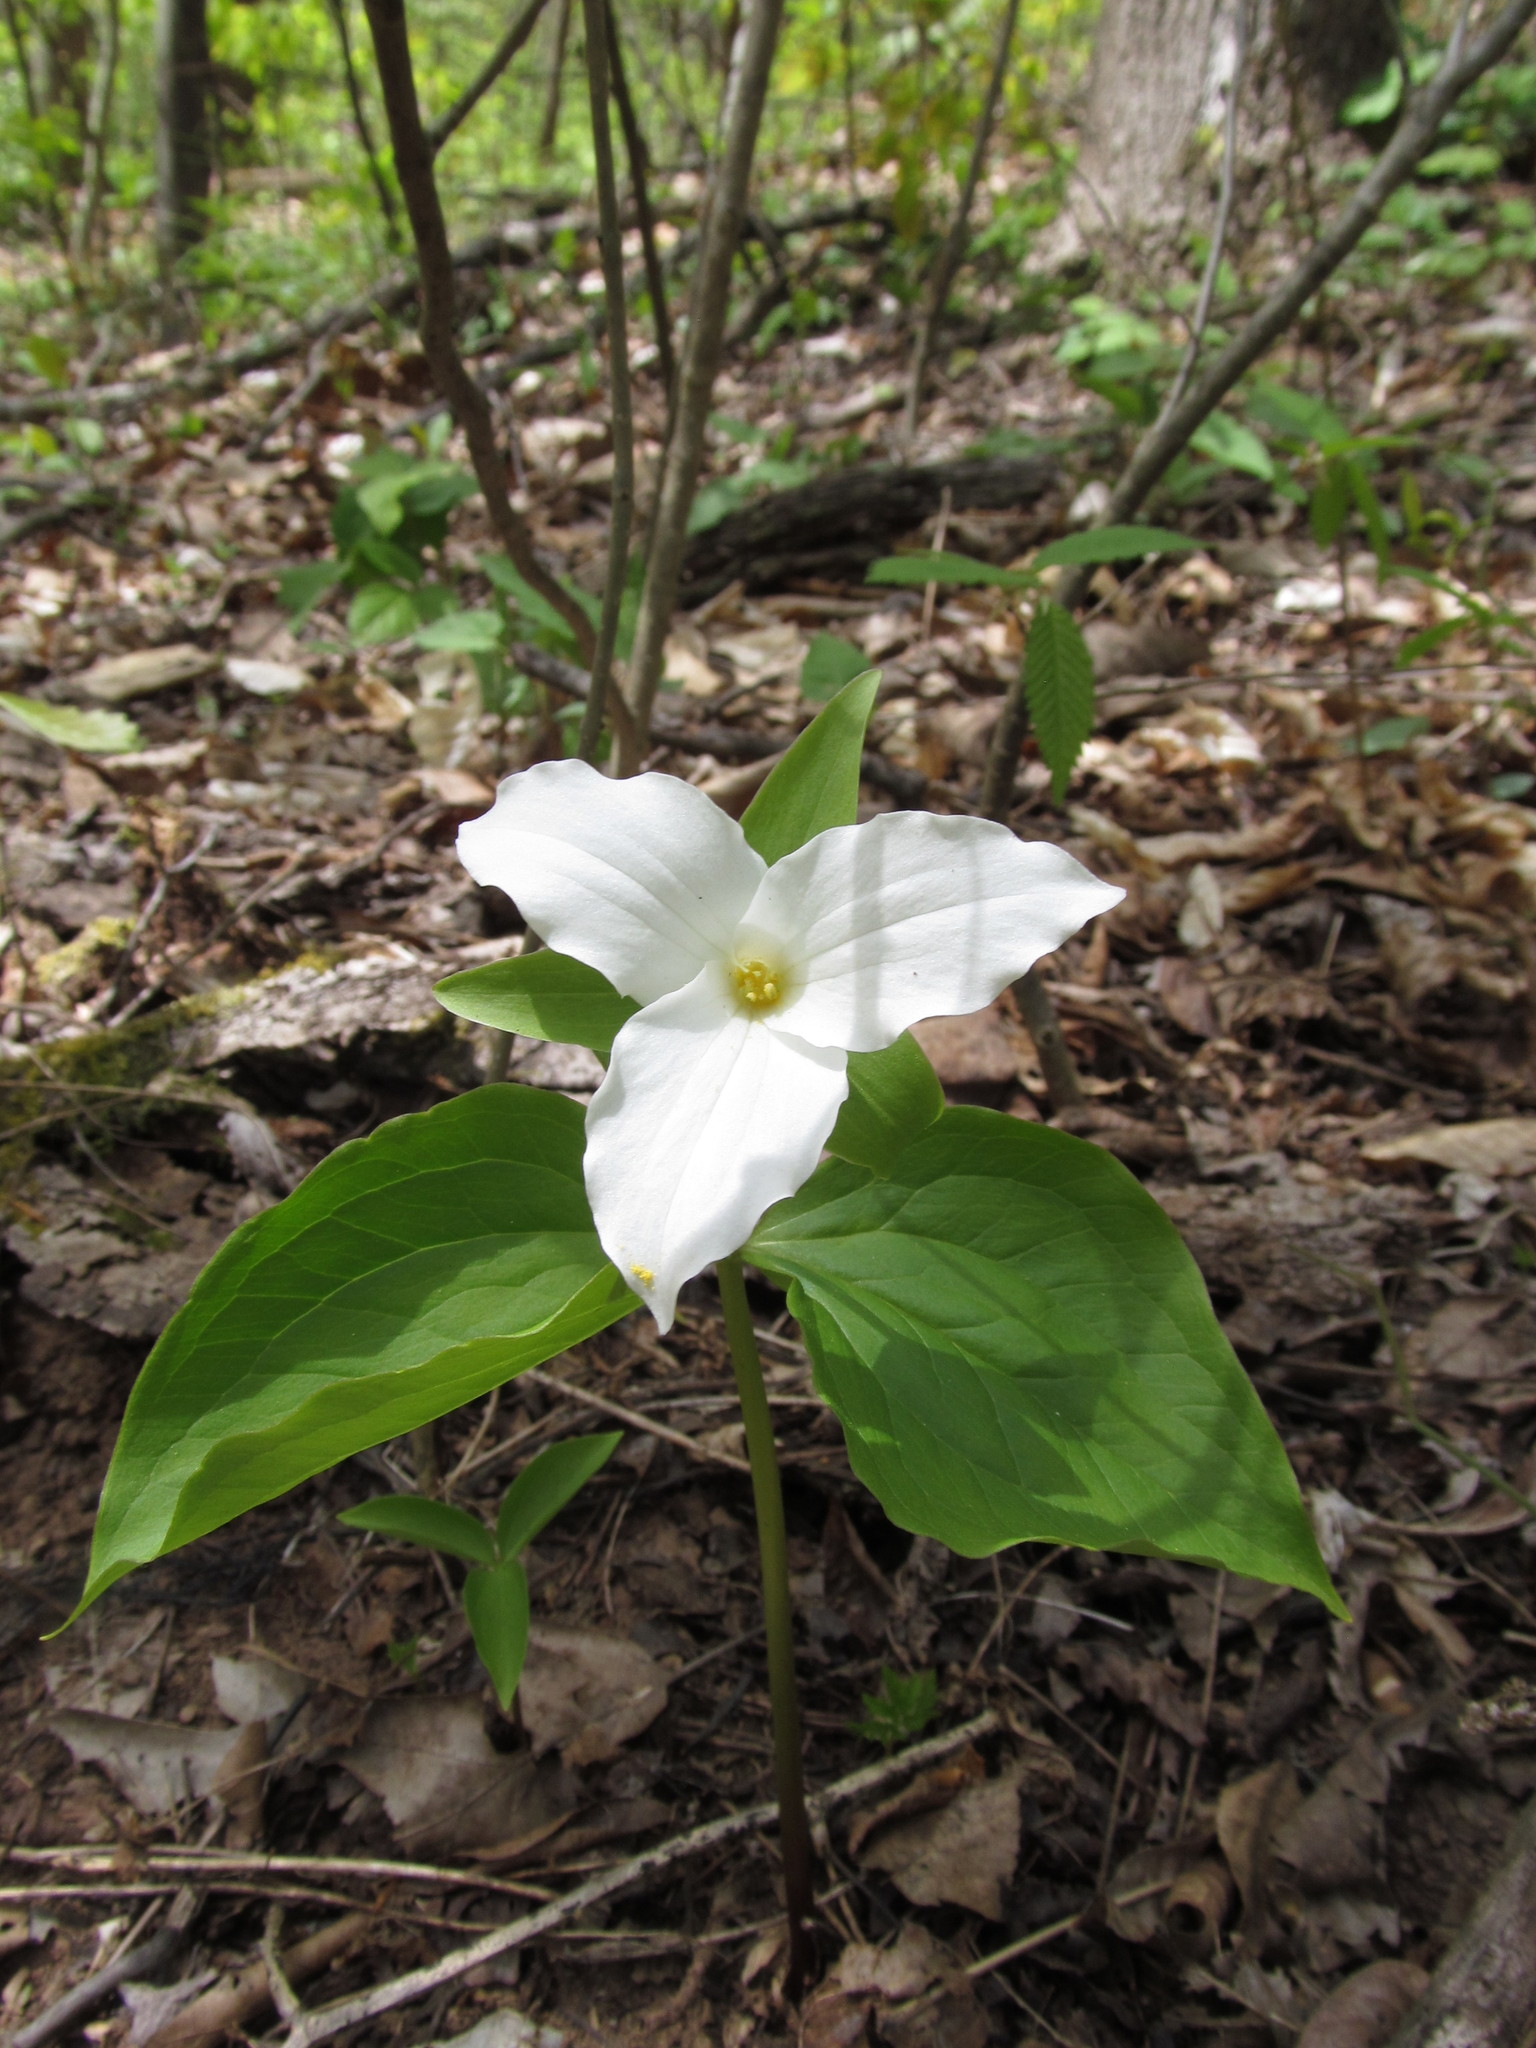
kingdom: Plantae
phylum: Tracheophyta
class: Liliopsida
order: Liliales
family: Melanthiaceae
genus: Trillium
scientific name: Trillium grandiflorum
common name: Great white trillium
